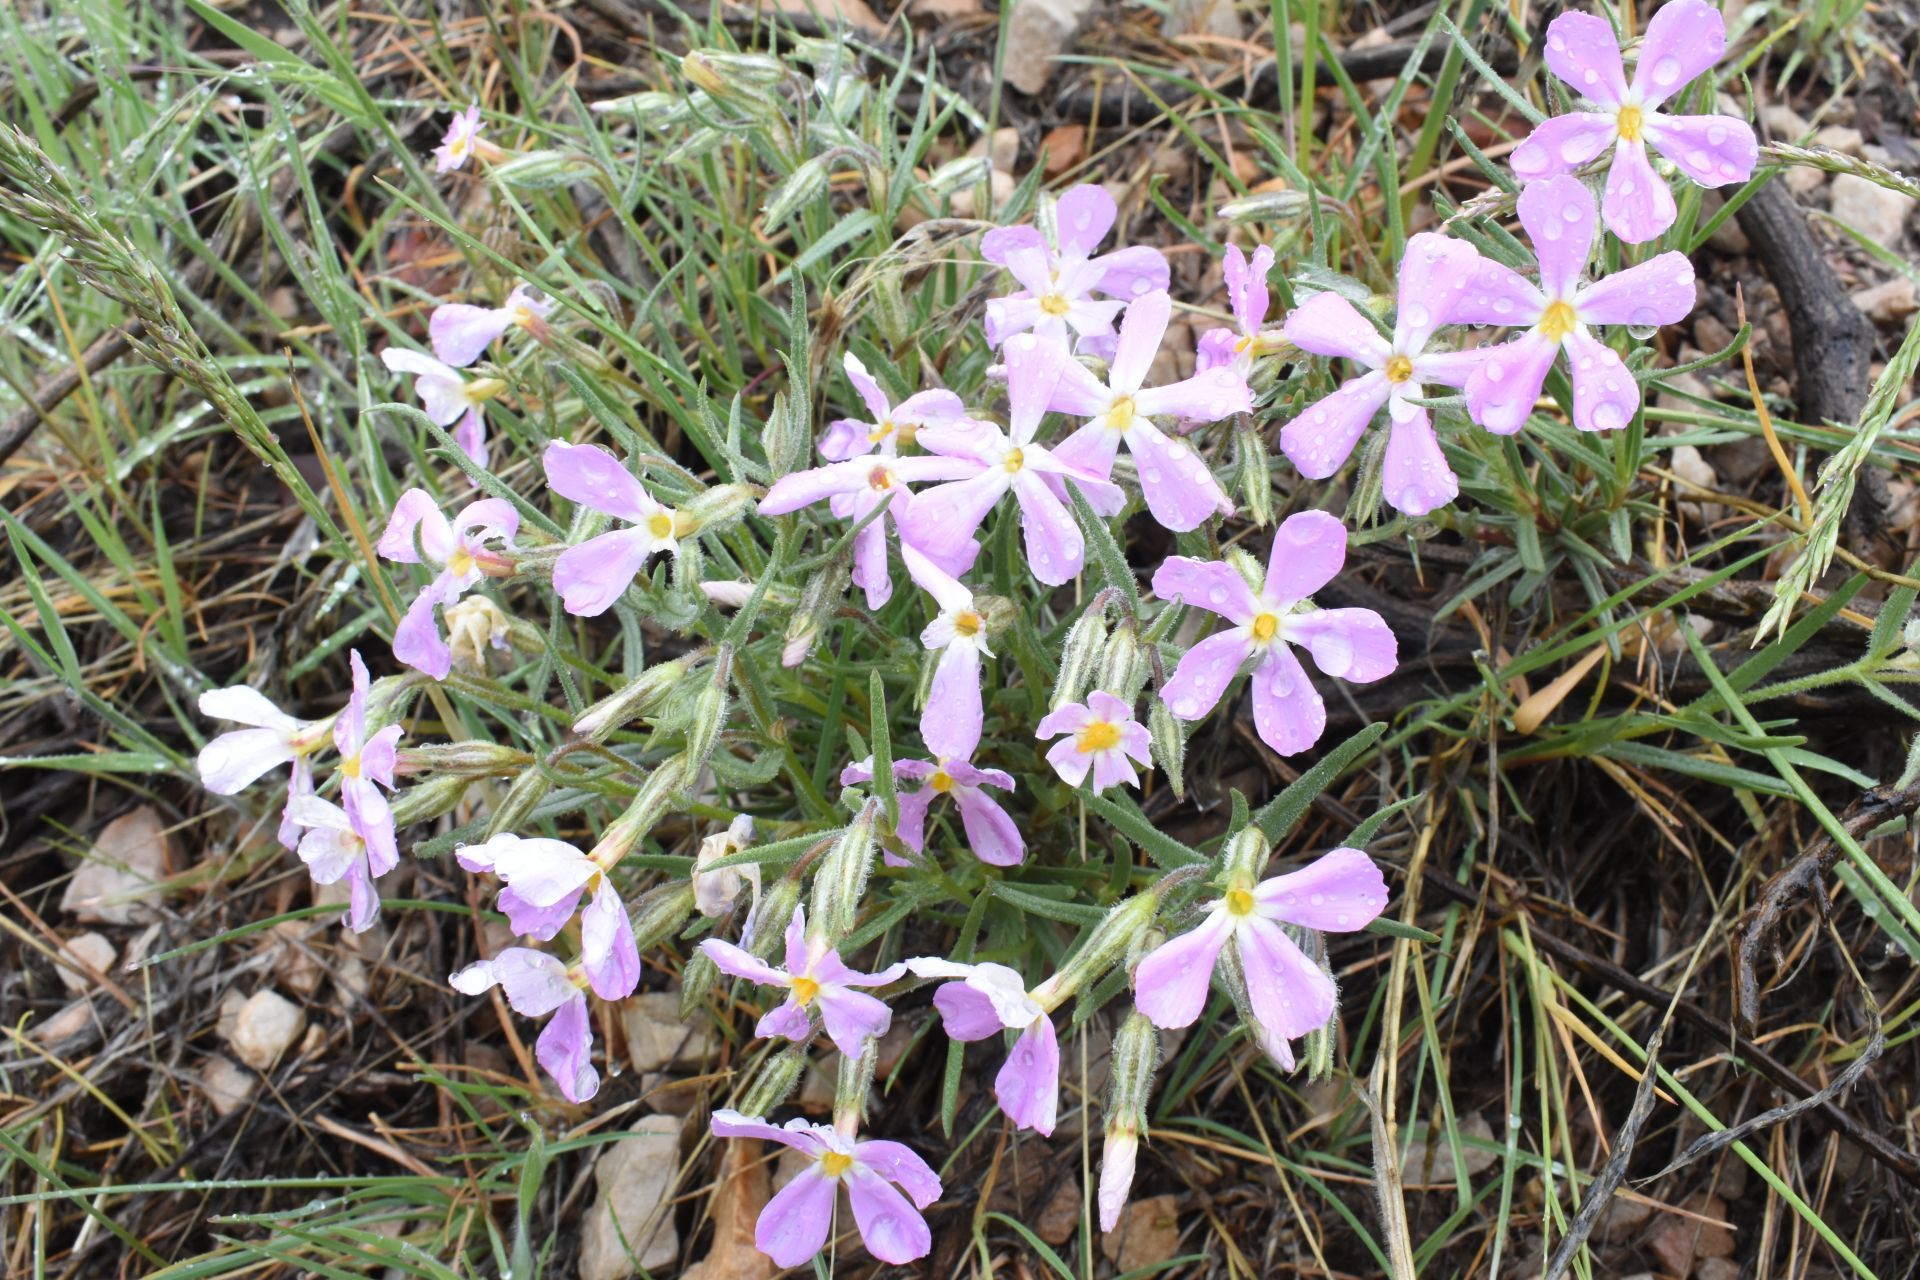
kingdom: Plantae
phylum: Tracheophyta
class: Magnoliopsida
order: Ericales
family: Polemoniaceae
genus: Phlox
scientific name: Phlox longifolia
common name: Longleaf phlox
